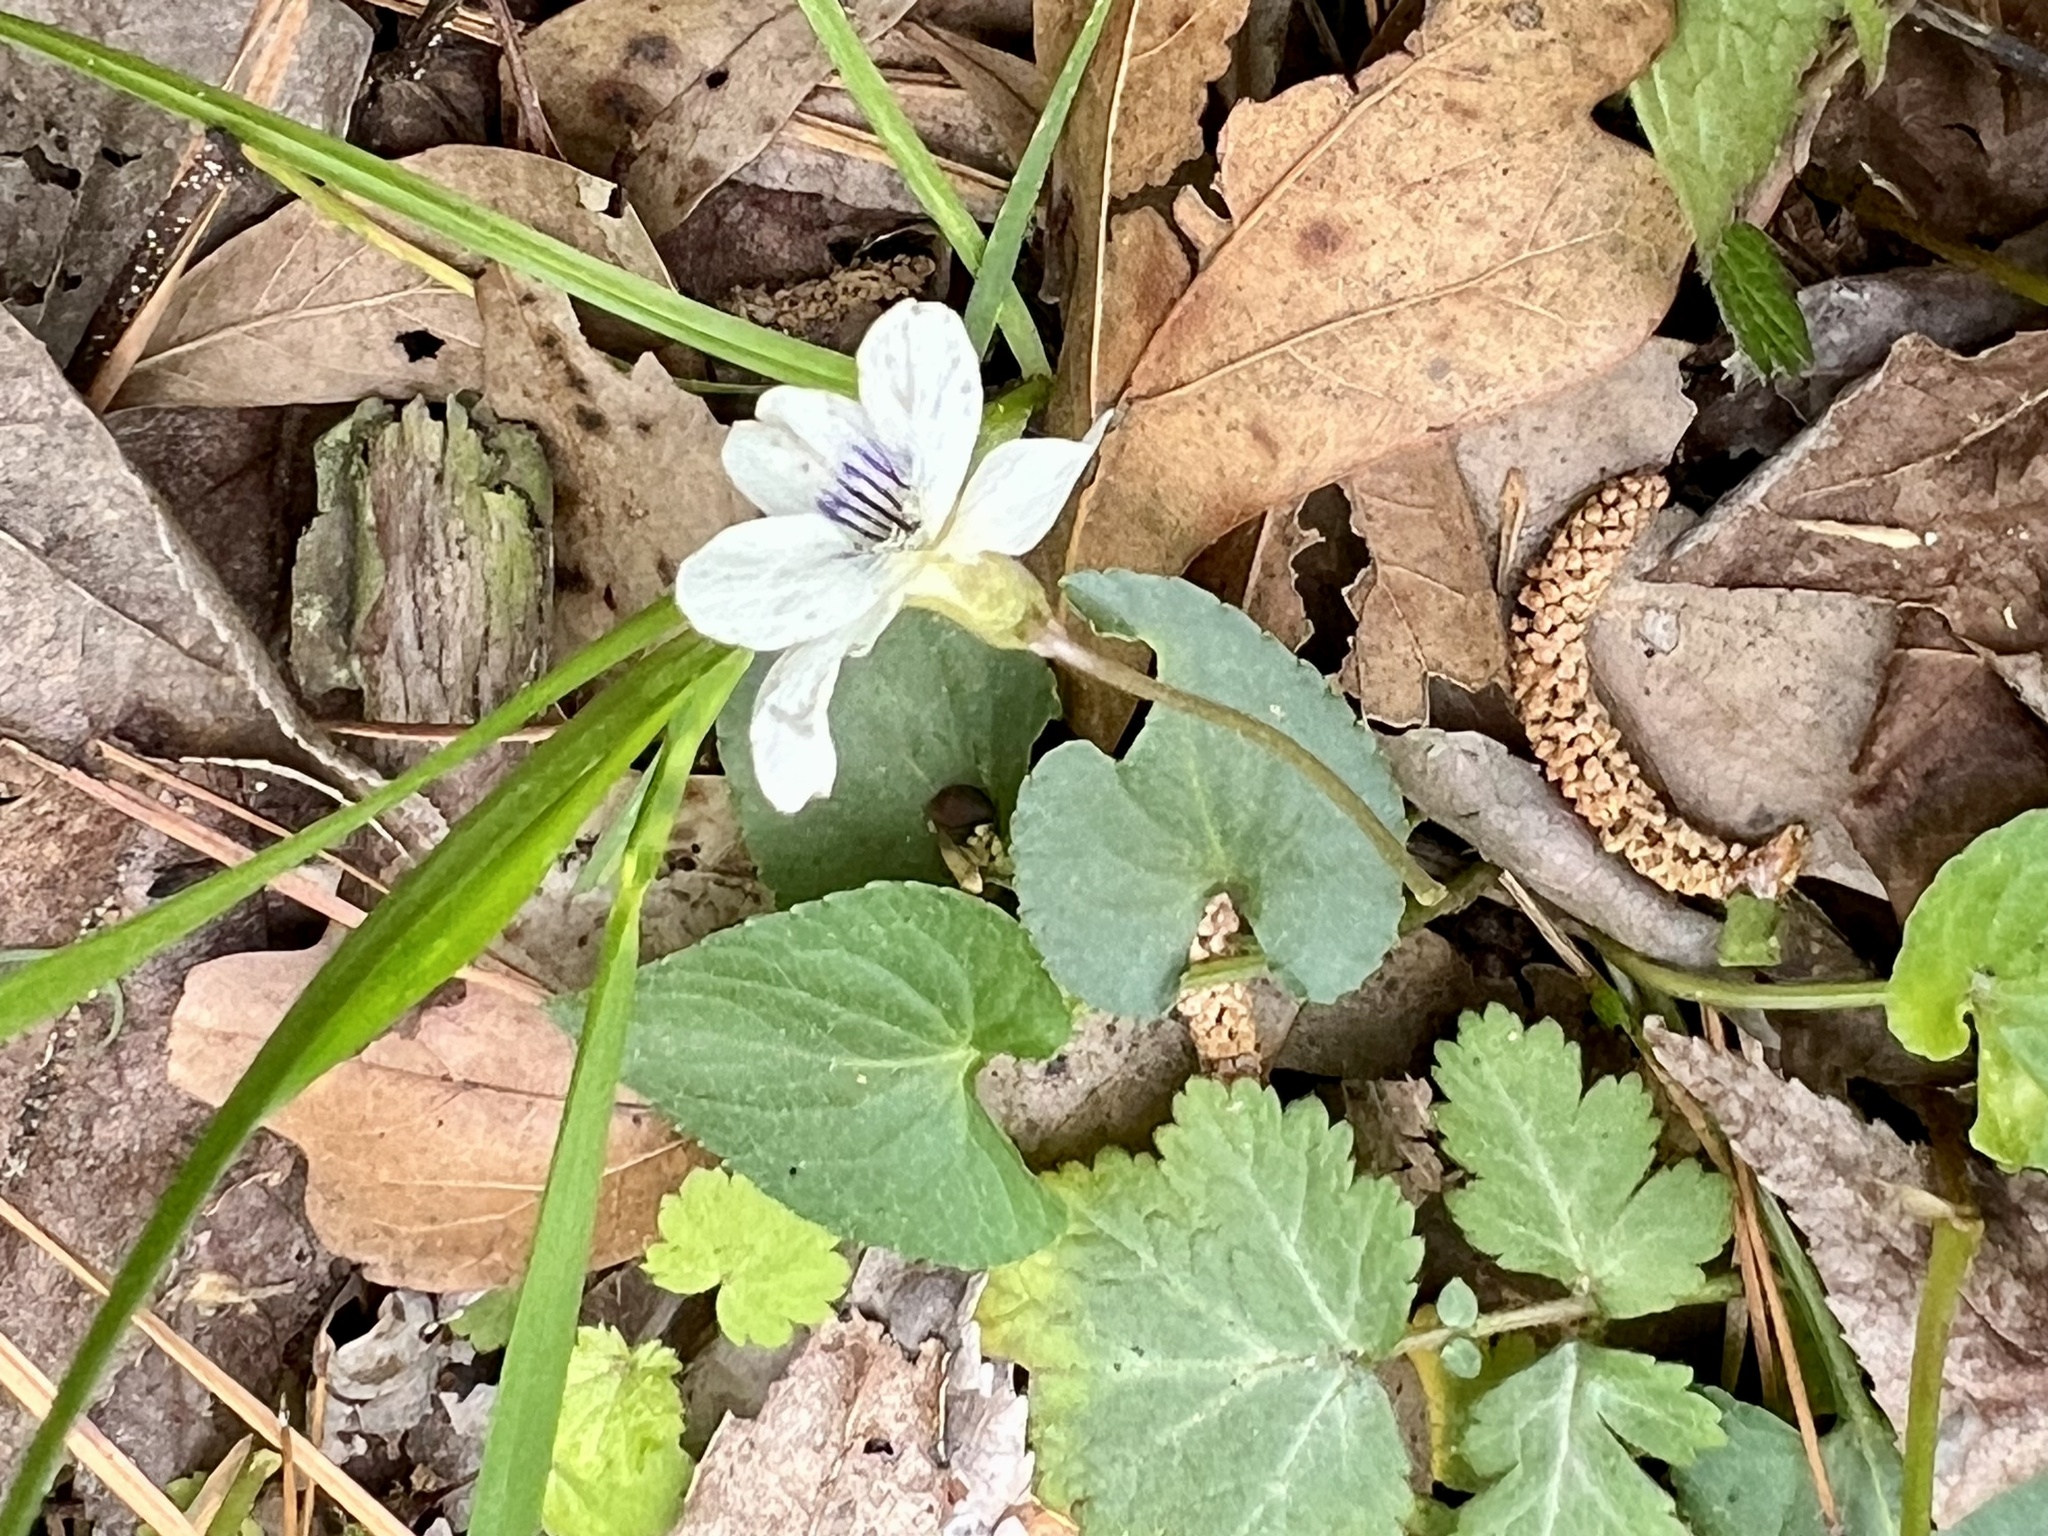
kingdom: Plantae
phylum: Tracheophyta
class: Magnoliopsida
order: Malpighiales
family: Violaceae
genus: Viola
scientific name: Viola primulifolia
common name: Primrose-leaf violet
